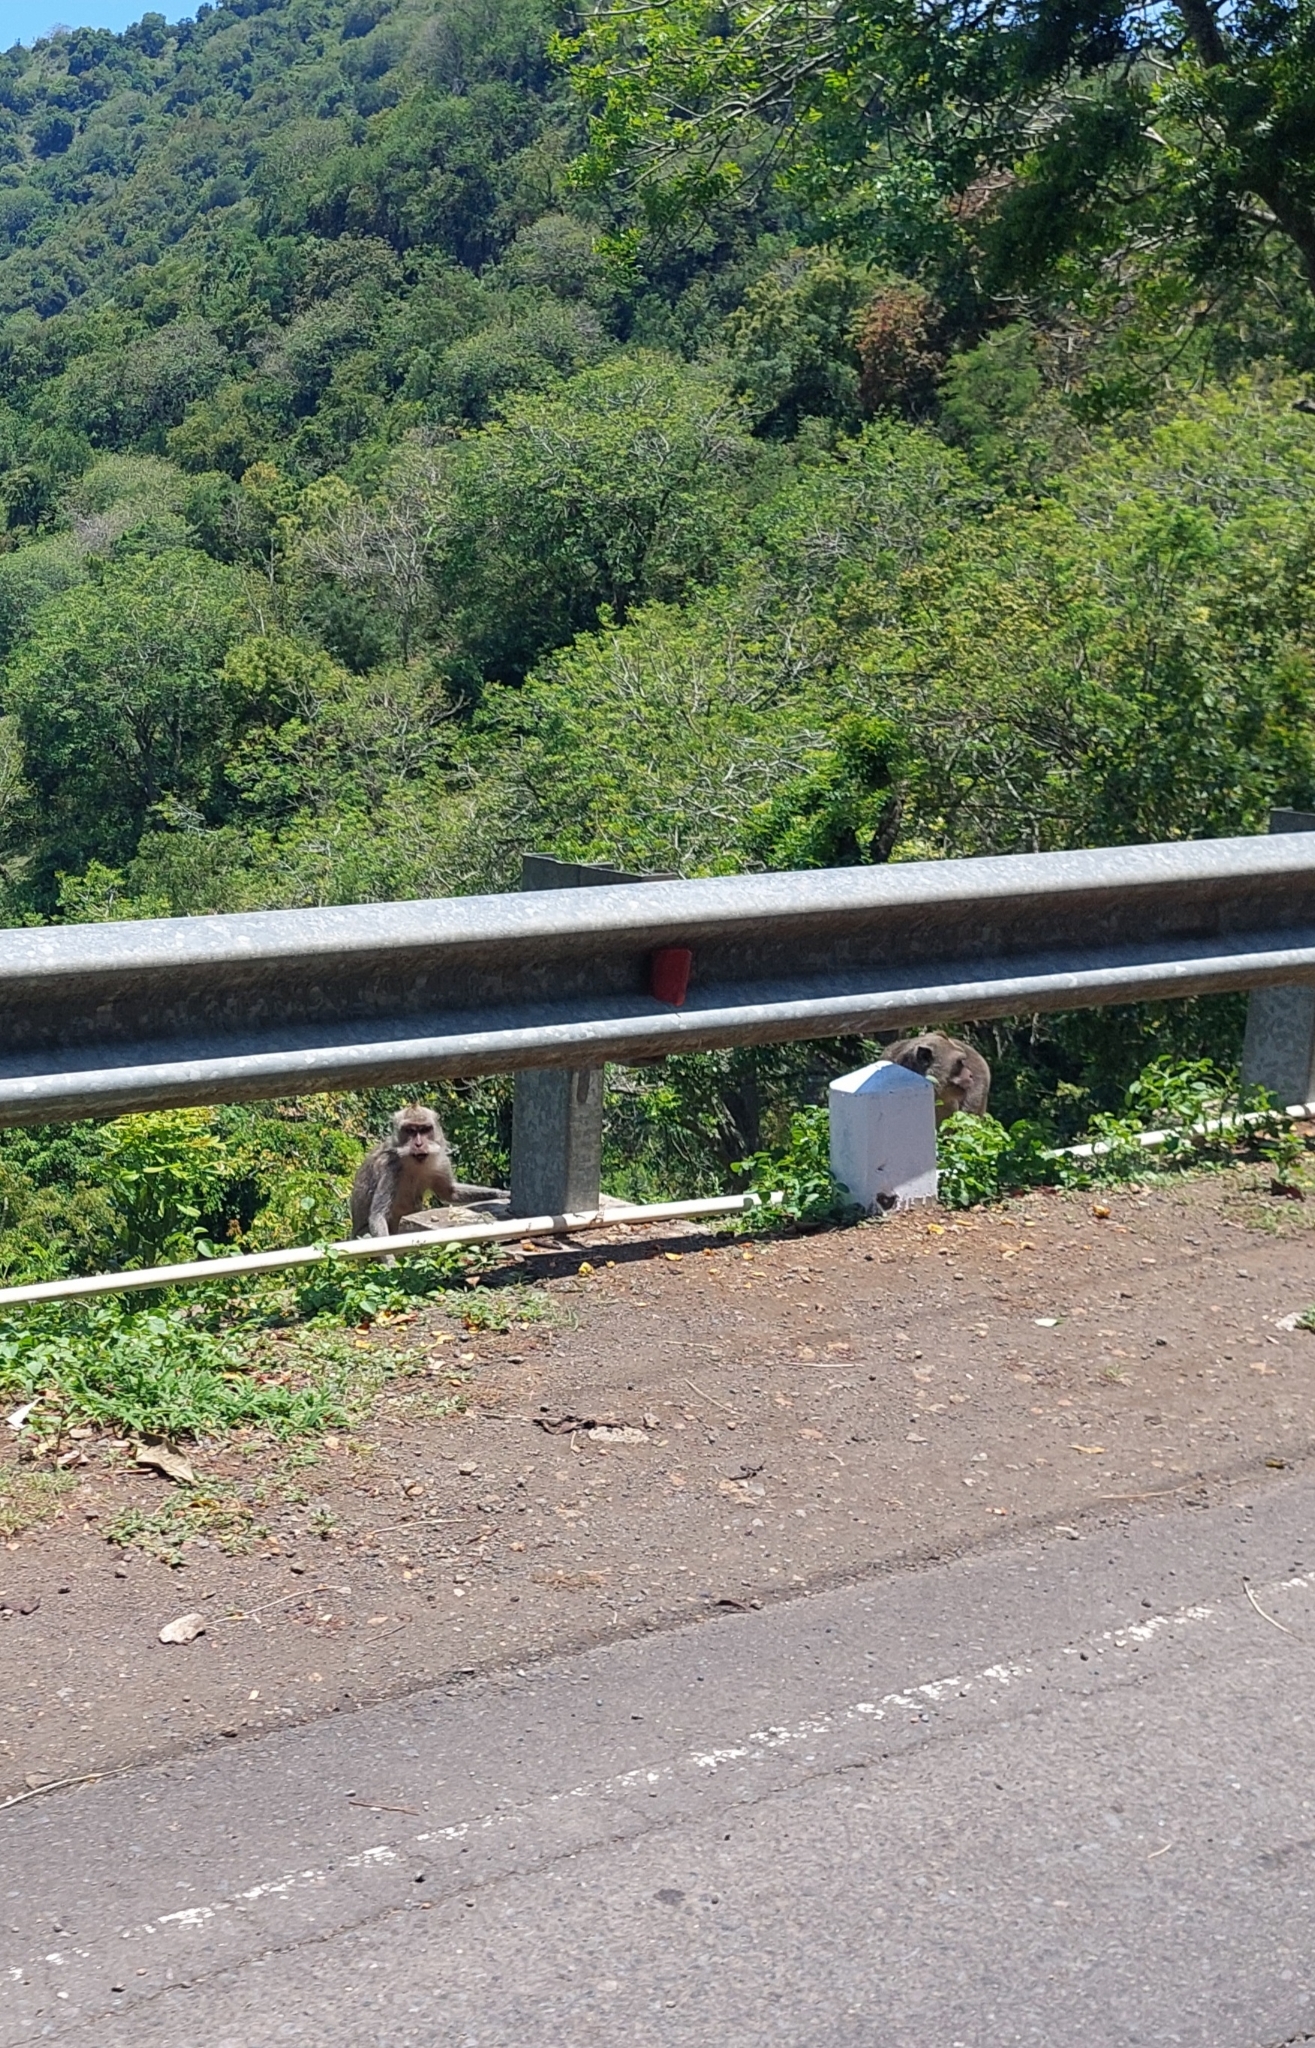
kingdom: Animalia
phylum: Chordata
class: Mammalia
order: Primates
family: Cercopithecidae
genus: Macaca
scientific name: Macaca fascicularis
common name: Crab-eating macaque
